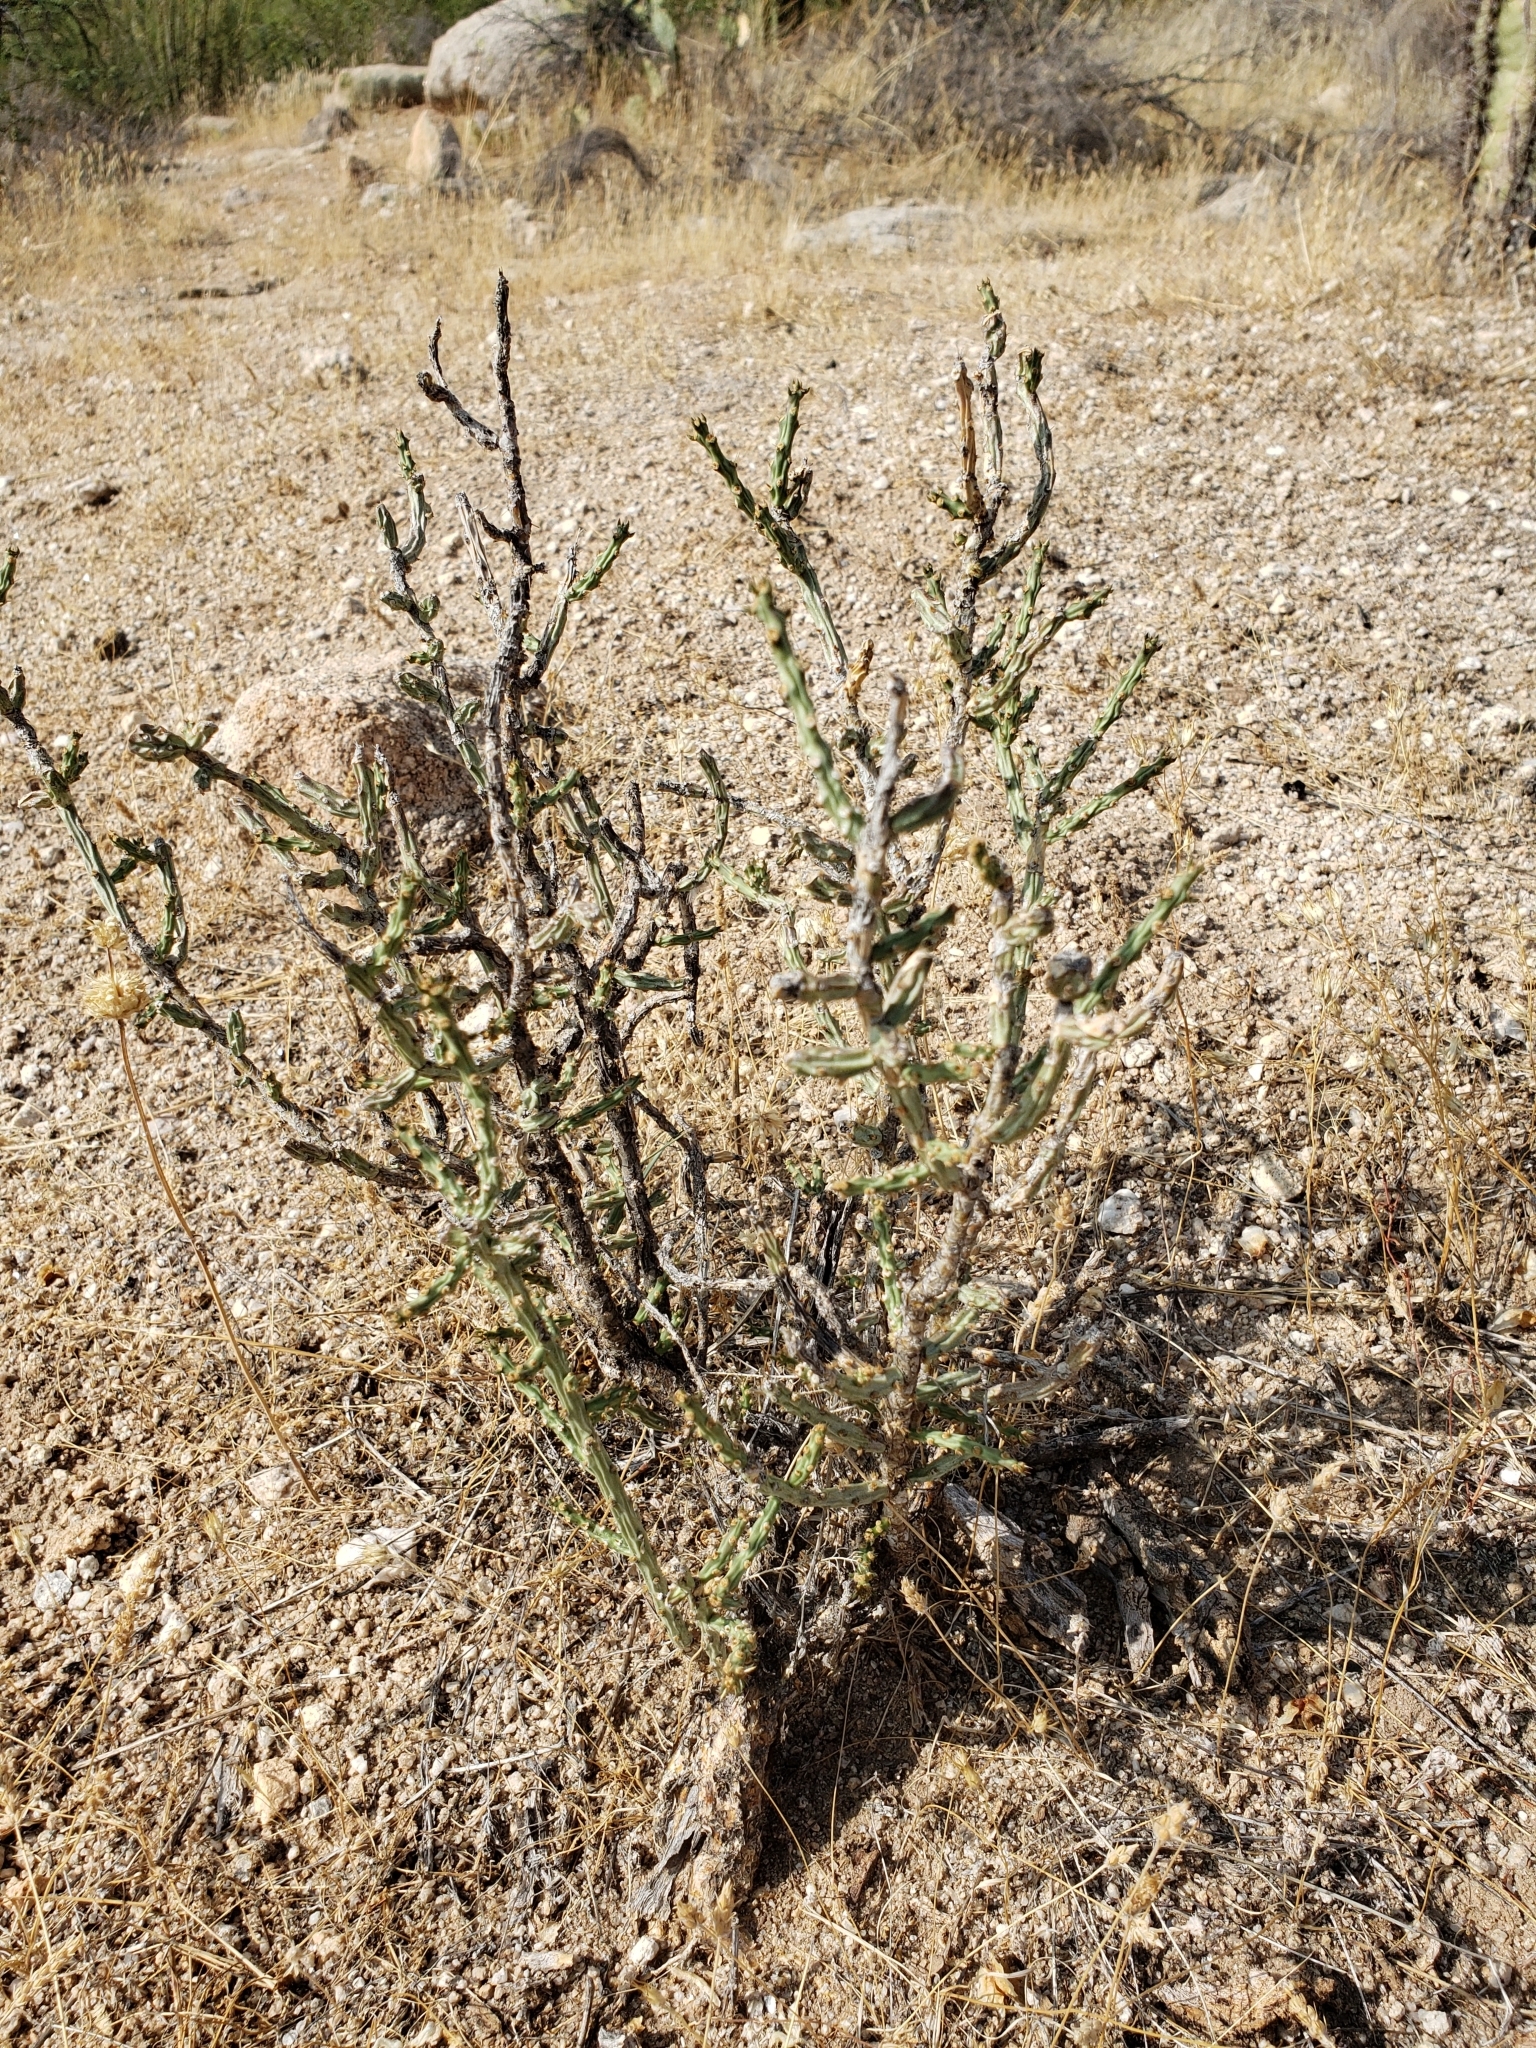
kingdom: Plantae
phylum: Tracheophyta
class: Magnoliopsida
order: Caryophyllales
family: Cactaceae
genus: Cylindropuntia
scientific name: Cylindropuntia leptocaulis
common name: Christmas cactus
